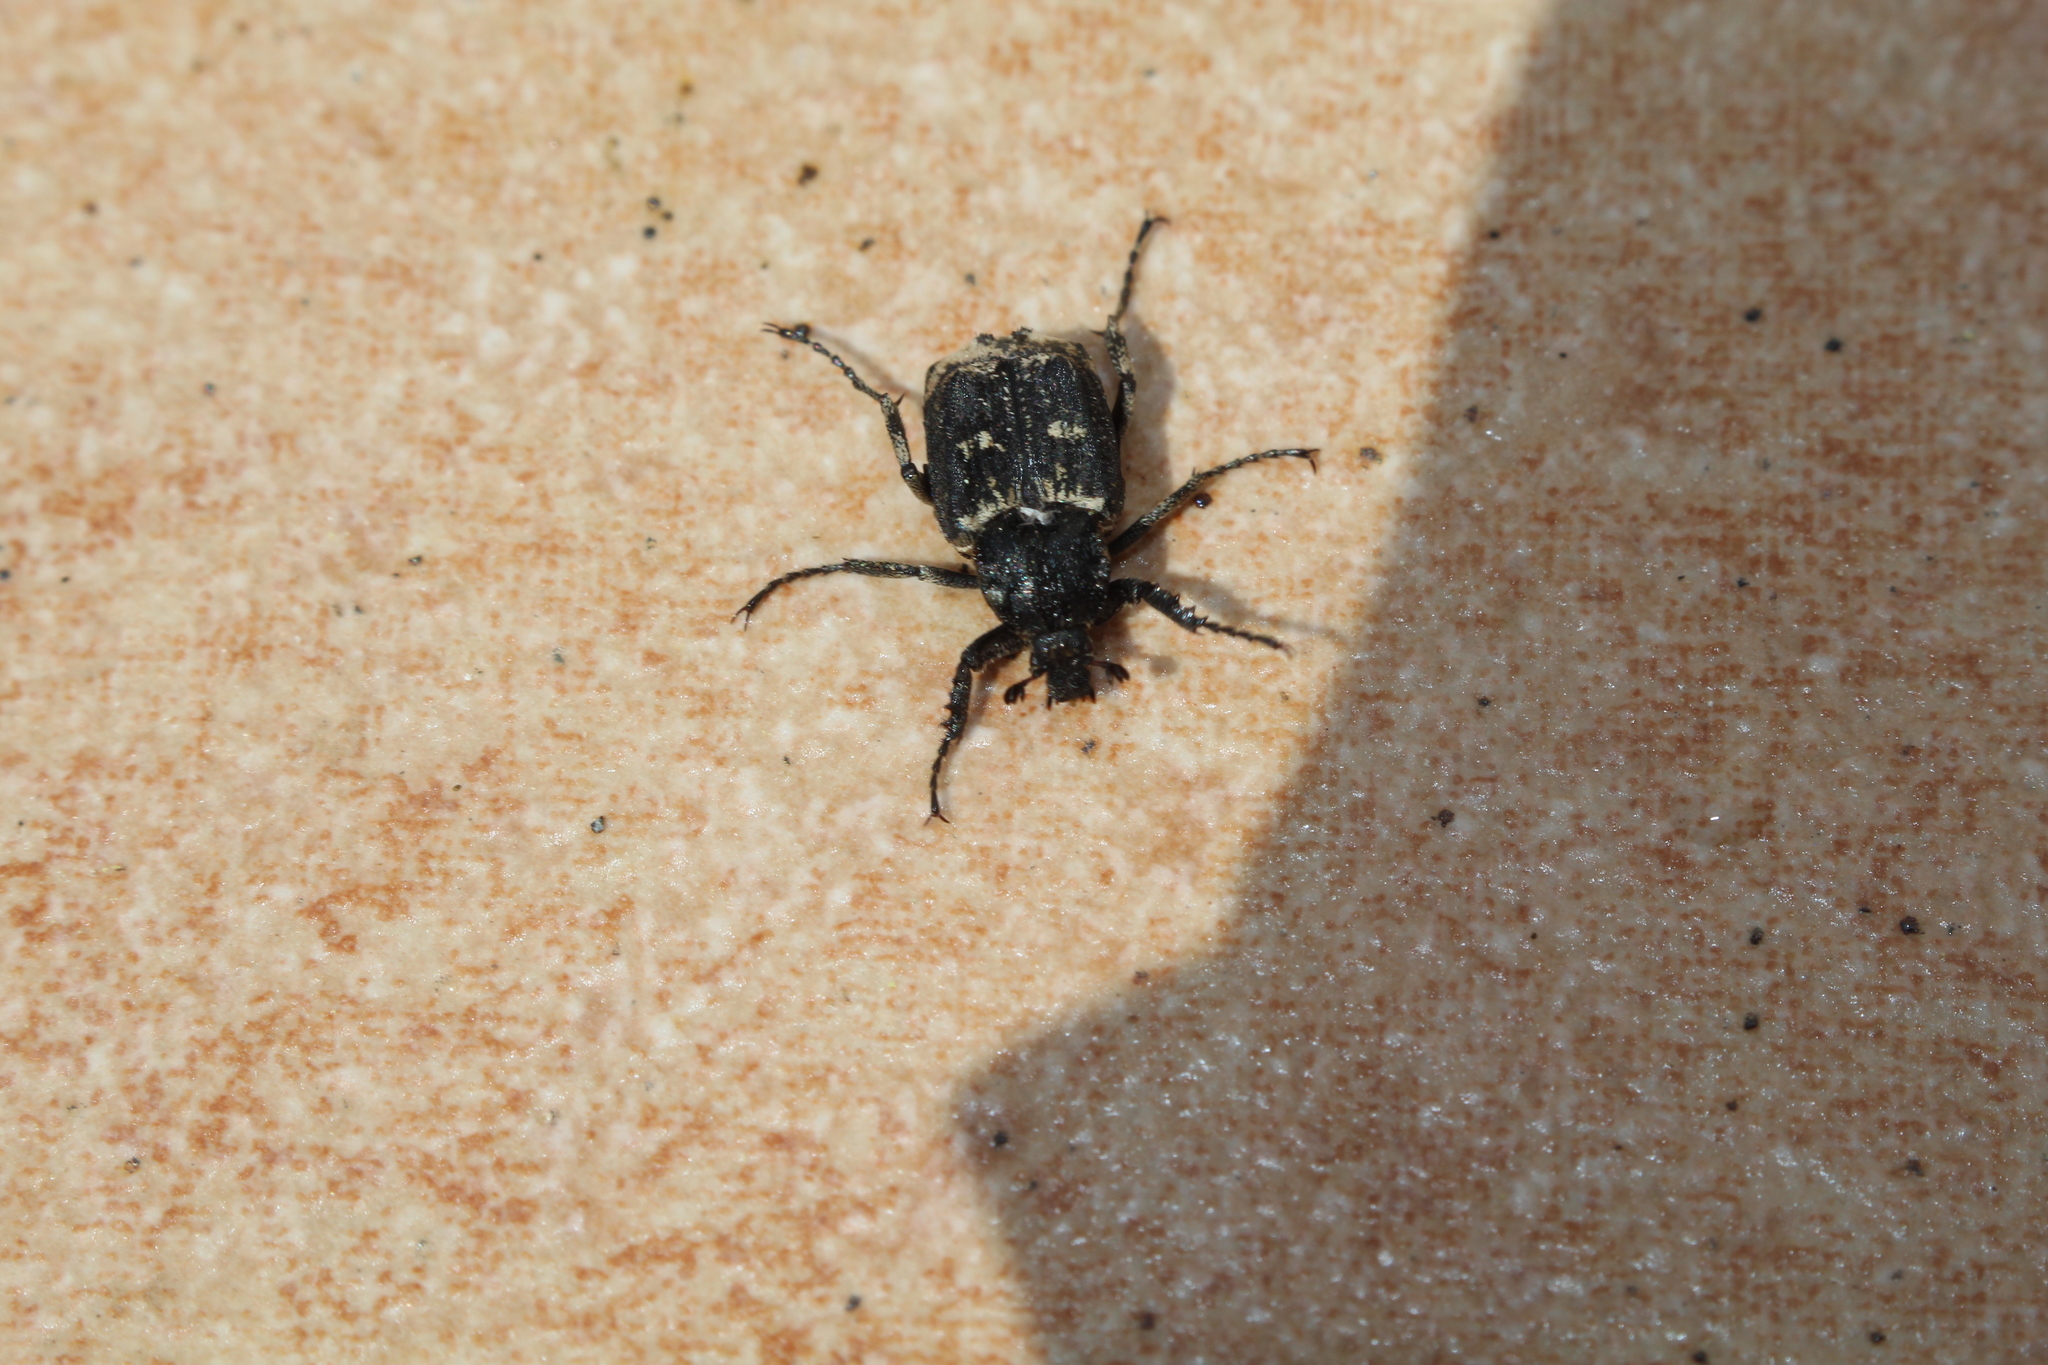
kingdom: Animalia
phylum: Arthropoda
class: Insecta
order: Coleoptera
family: Scarabaeidae
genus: Valgus
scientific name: Valgus hemipterus
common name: Bug flower chafer
